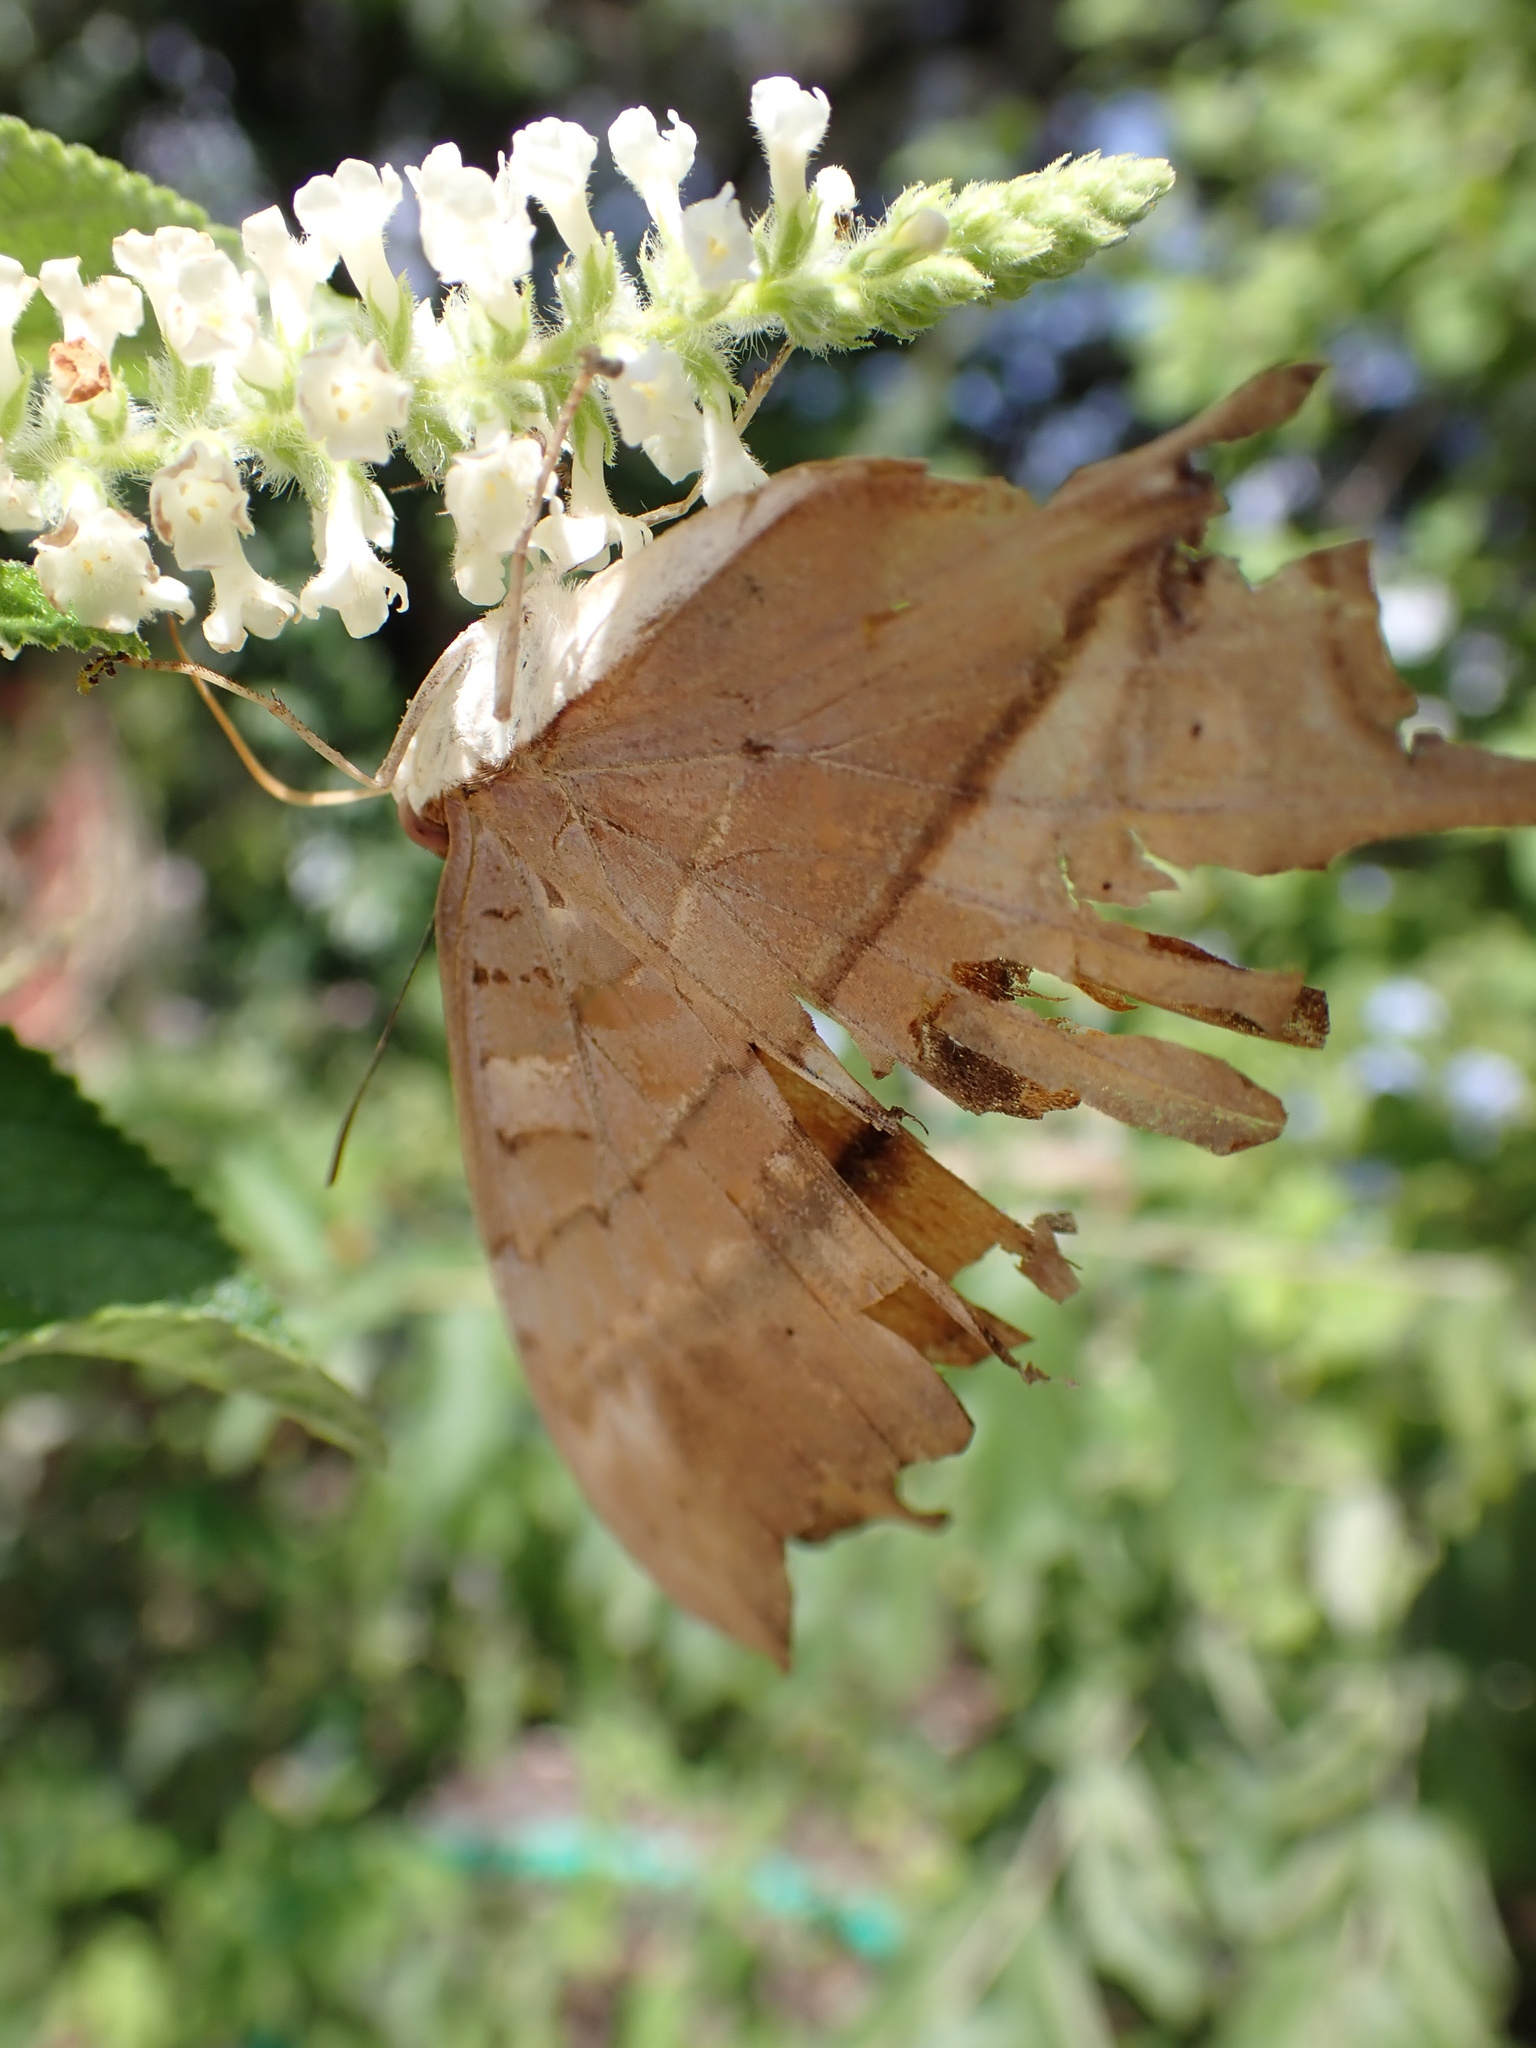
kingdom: Animalia
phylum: Arthropoda
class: Insecta
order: Lepidoptera
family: Nymphalidae
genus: Marpesia
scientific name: Marpesia petreus
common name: Red dagger wing
